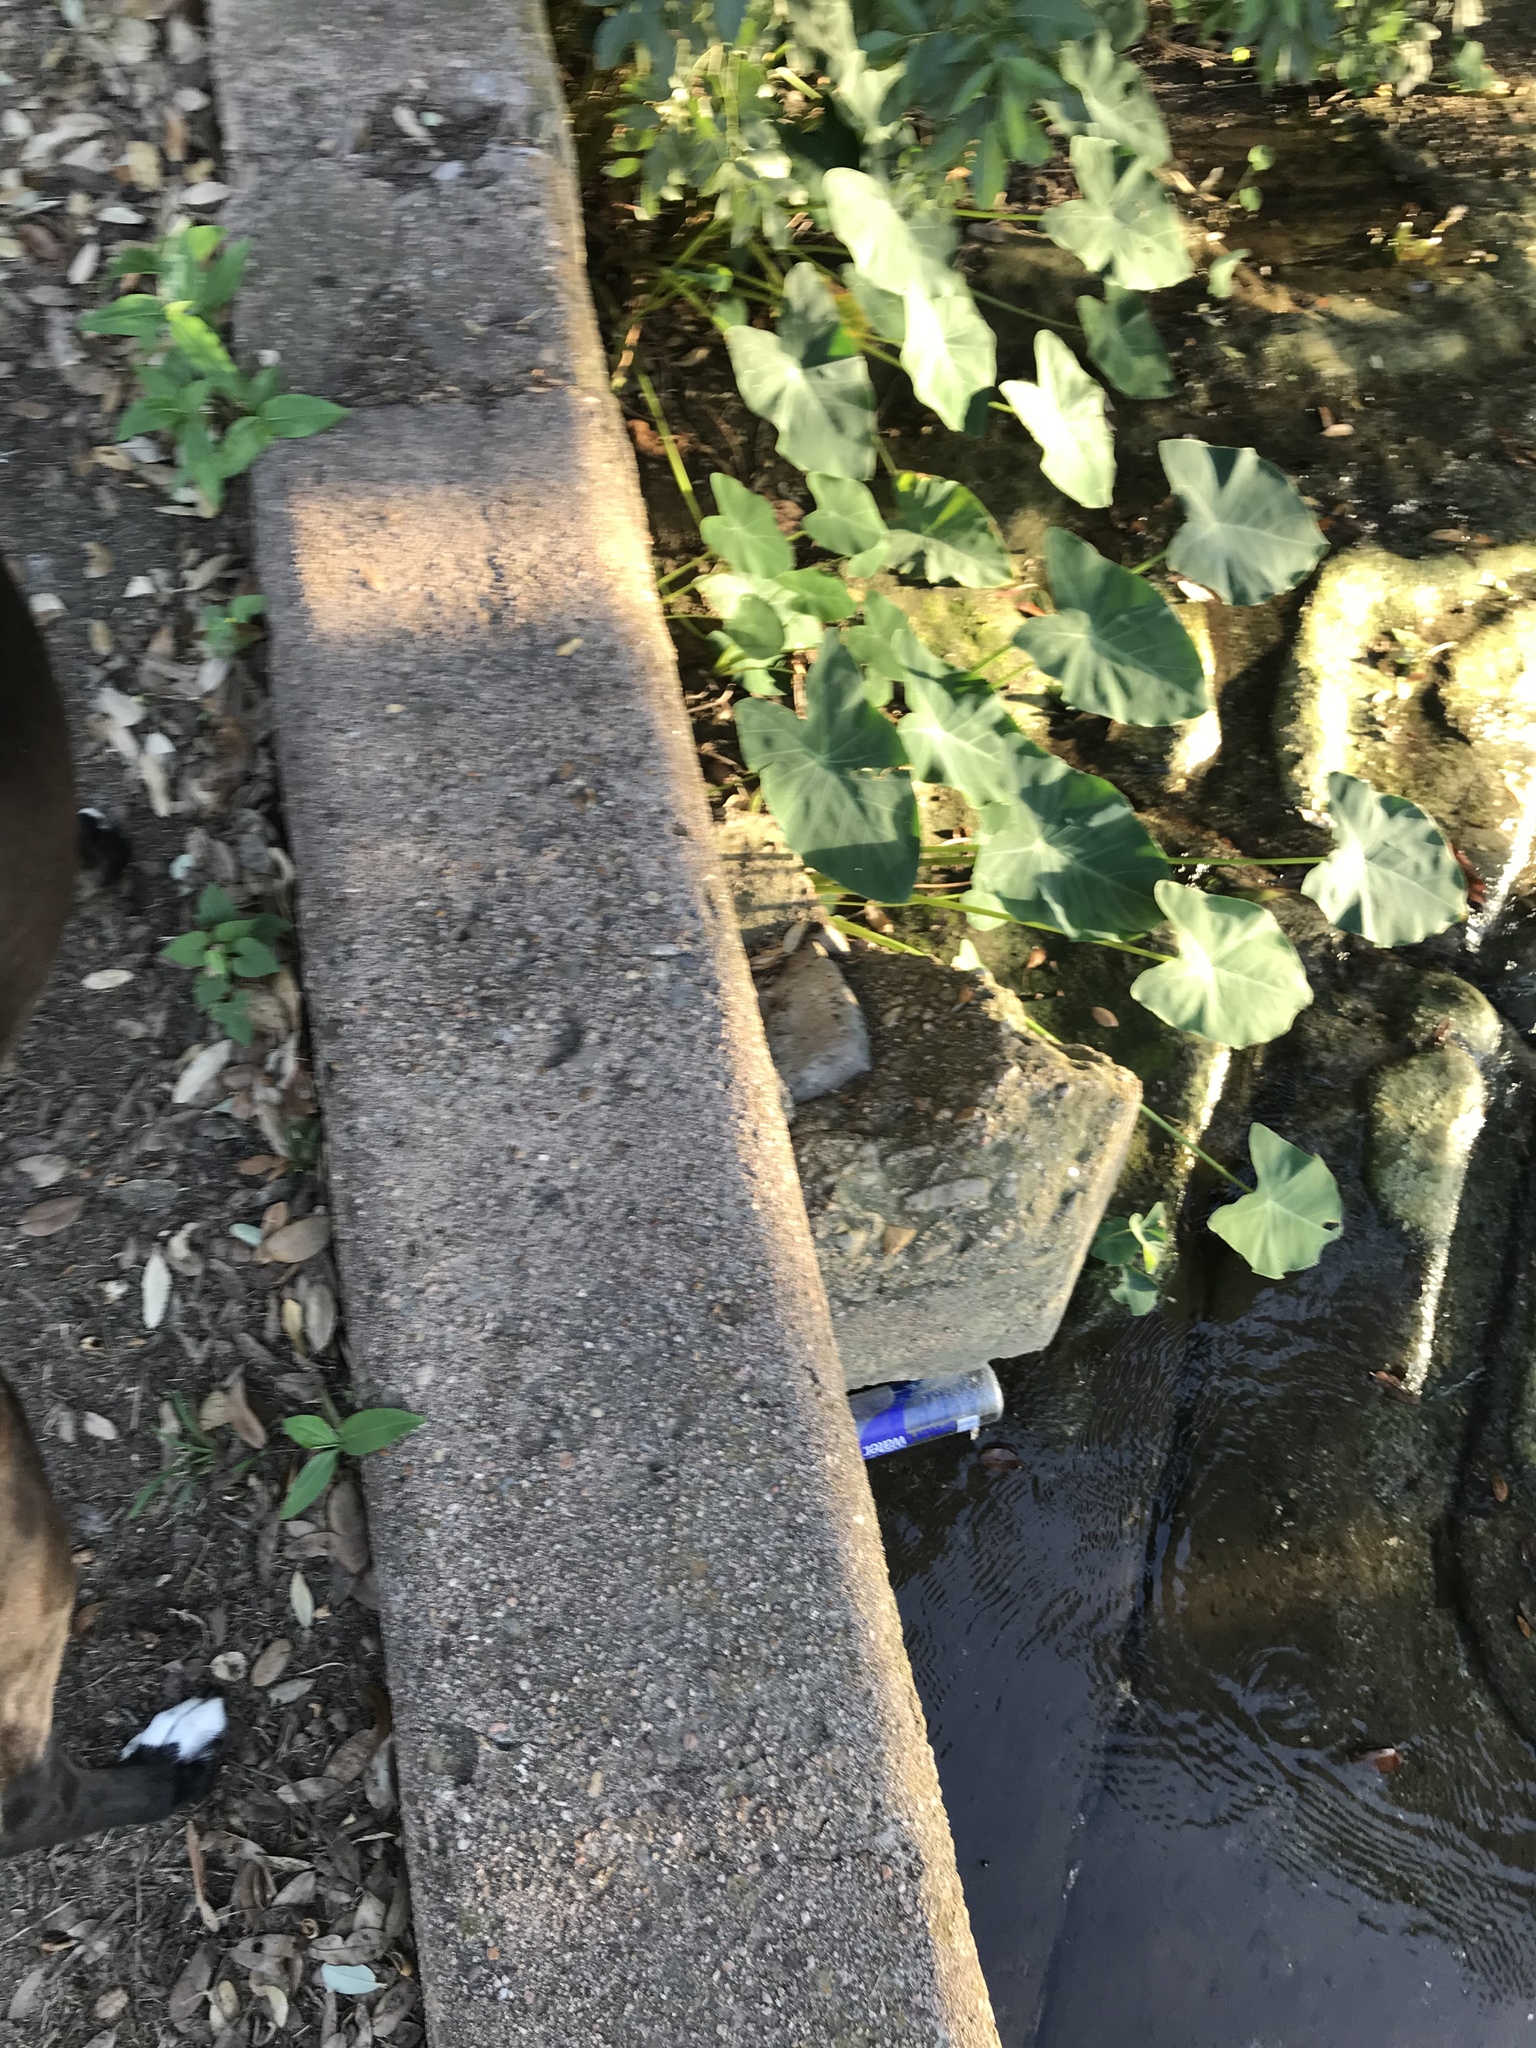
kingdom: Plantae
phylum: Tracheophyta
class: Liliopsida
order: Alismatales
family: Araceae
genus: Colocasia
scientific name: Colocasia esculenta
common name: Taro
